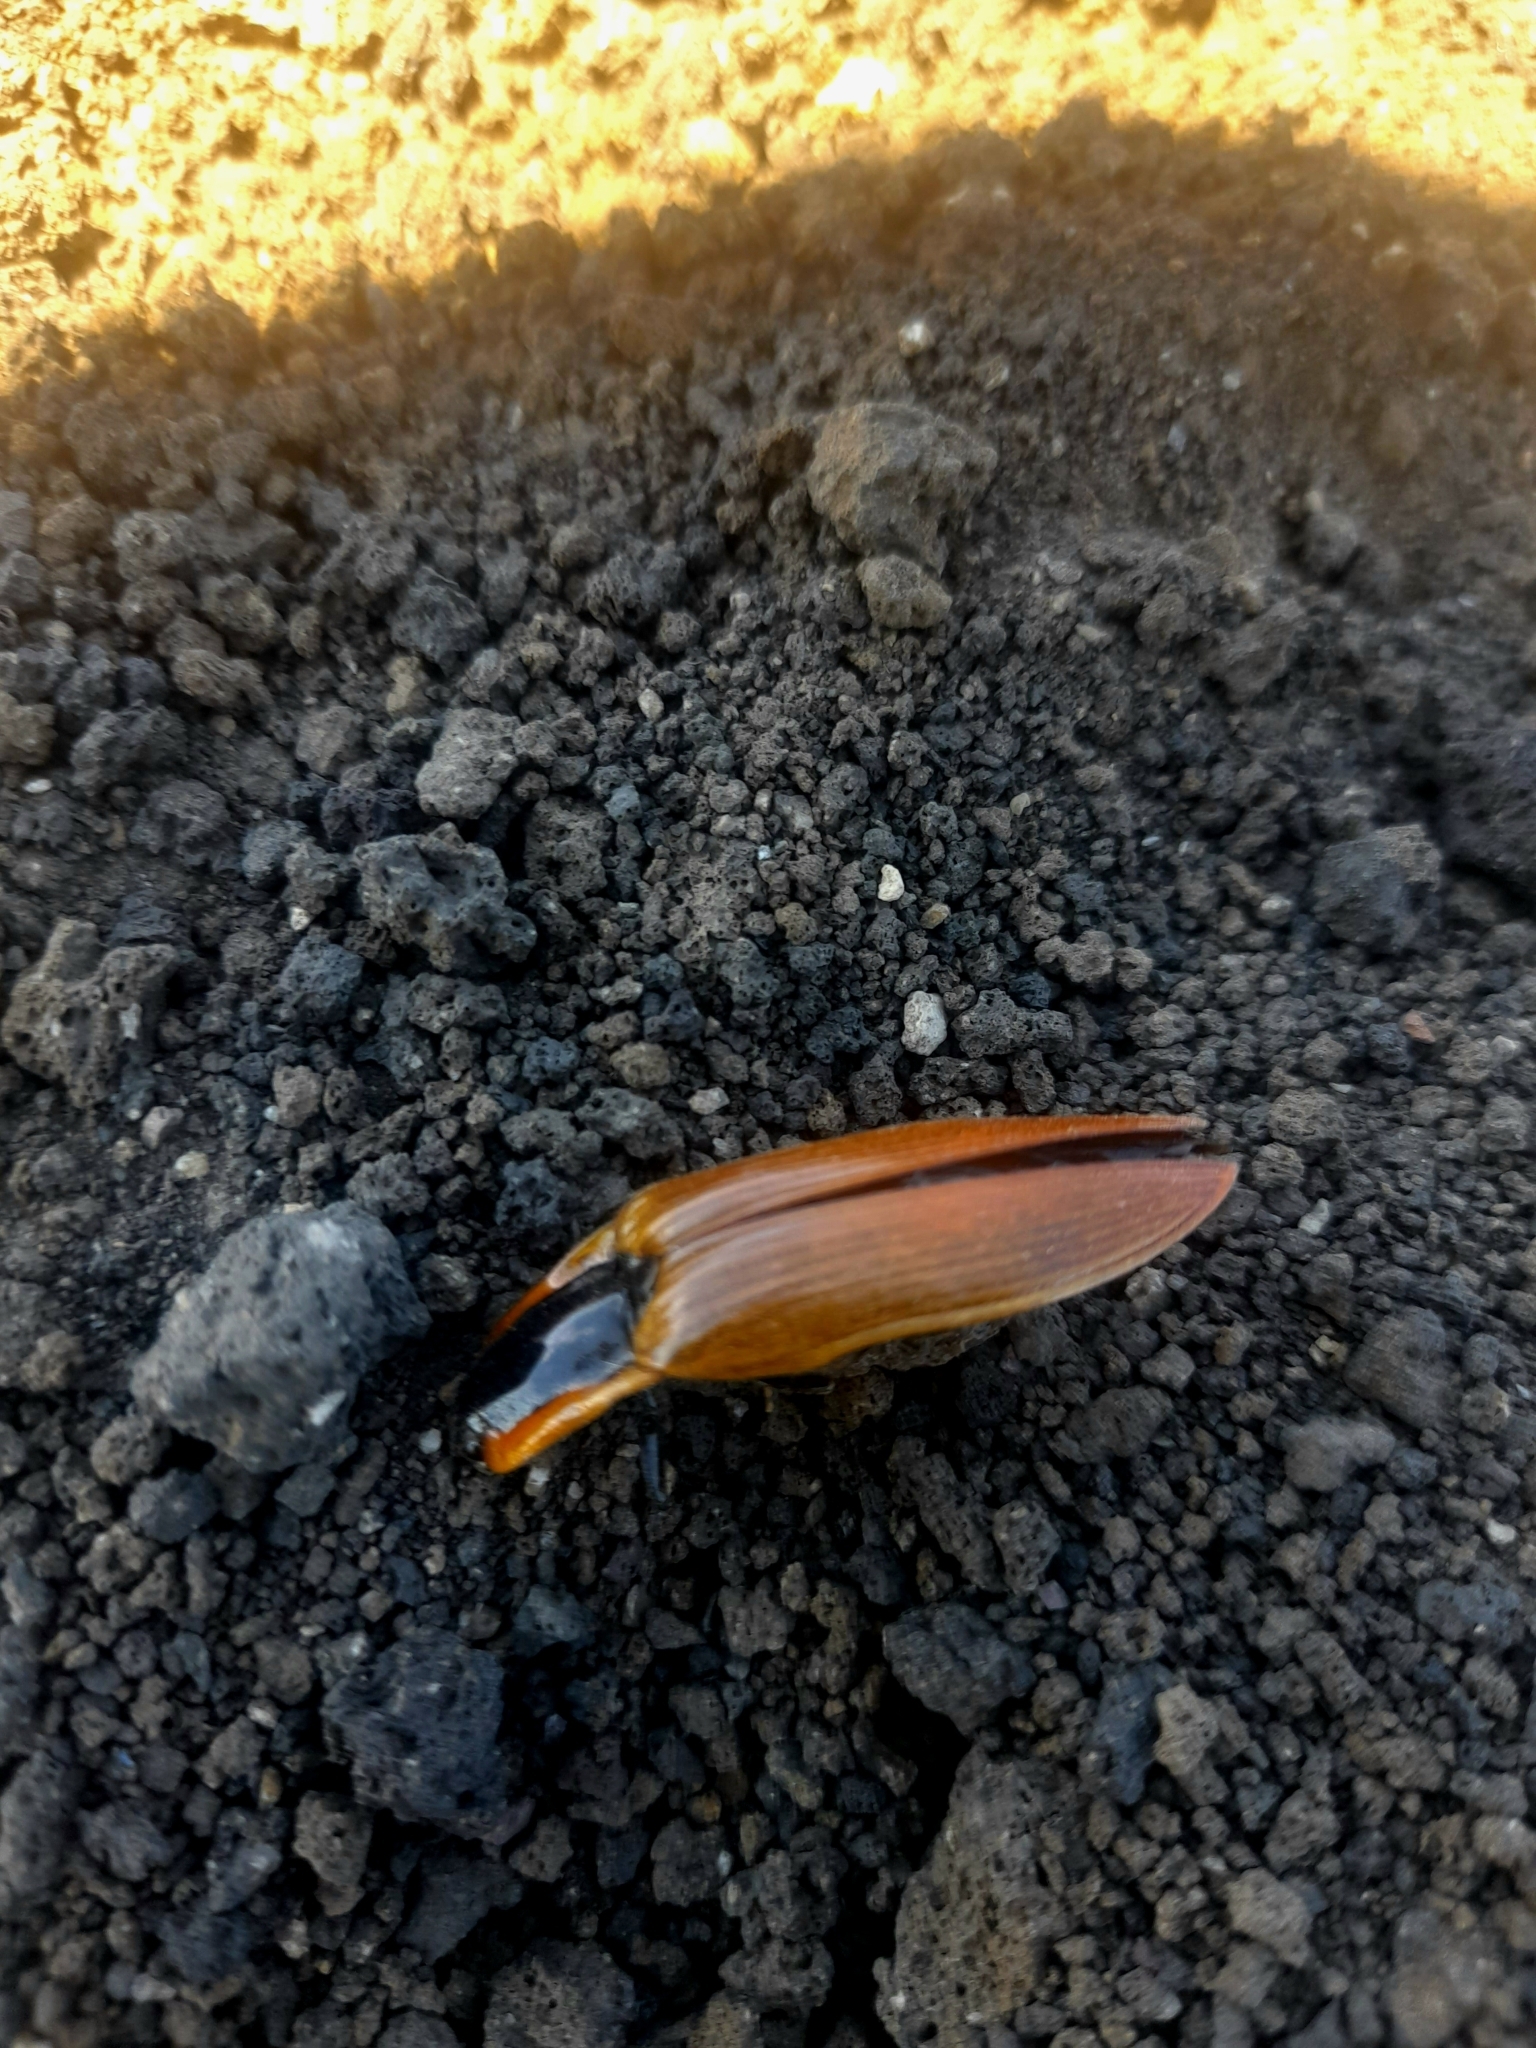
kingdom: Animalia
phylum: Arthropoda
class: Insecta
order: Coleoptera
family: Elateridae
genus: Semiotus
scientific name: Semiotus
